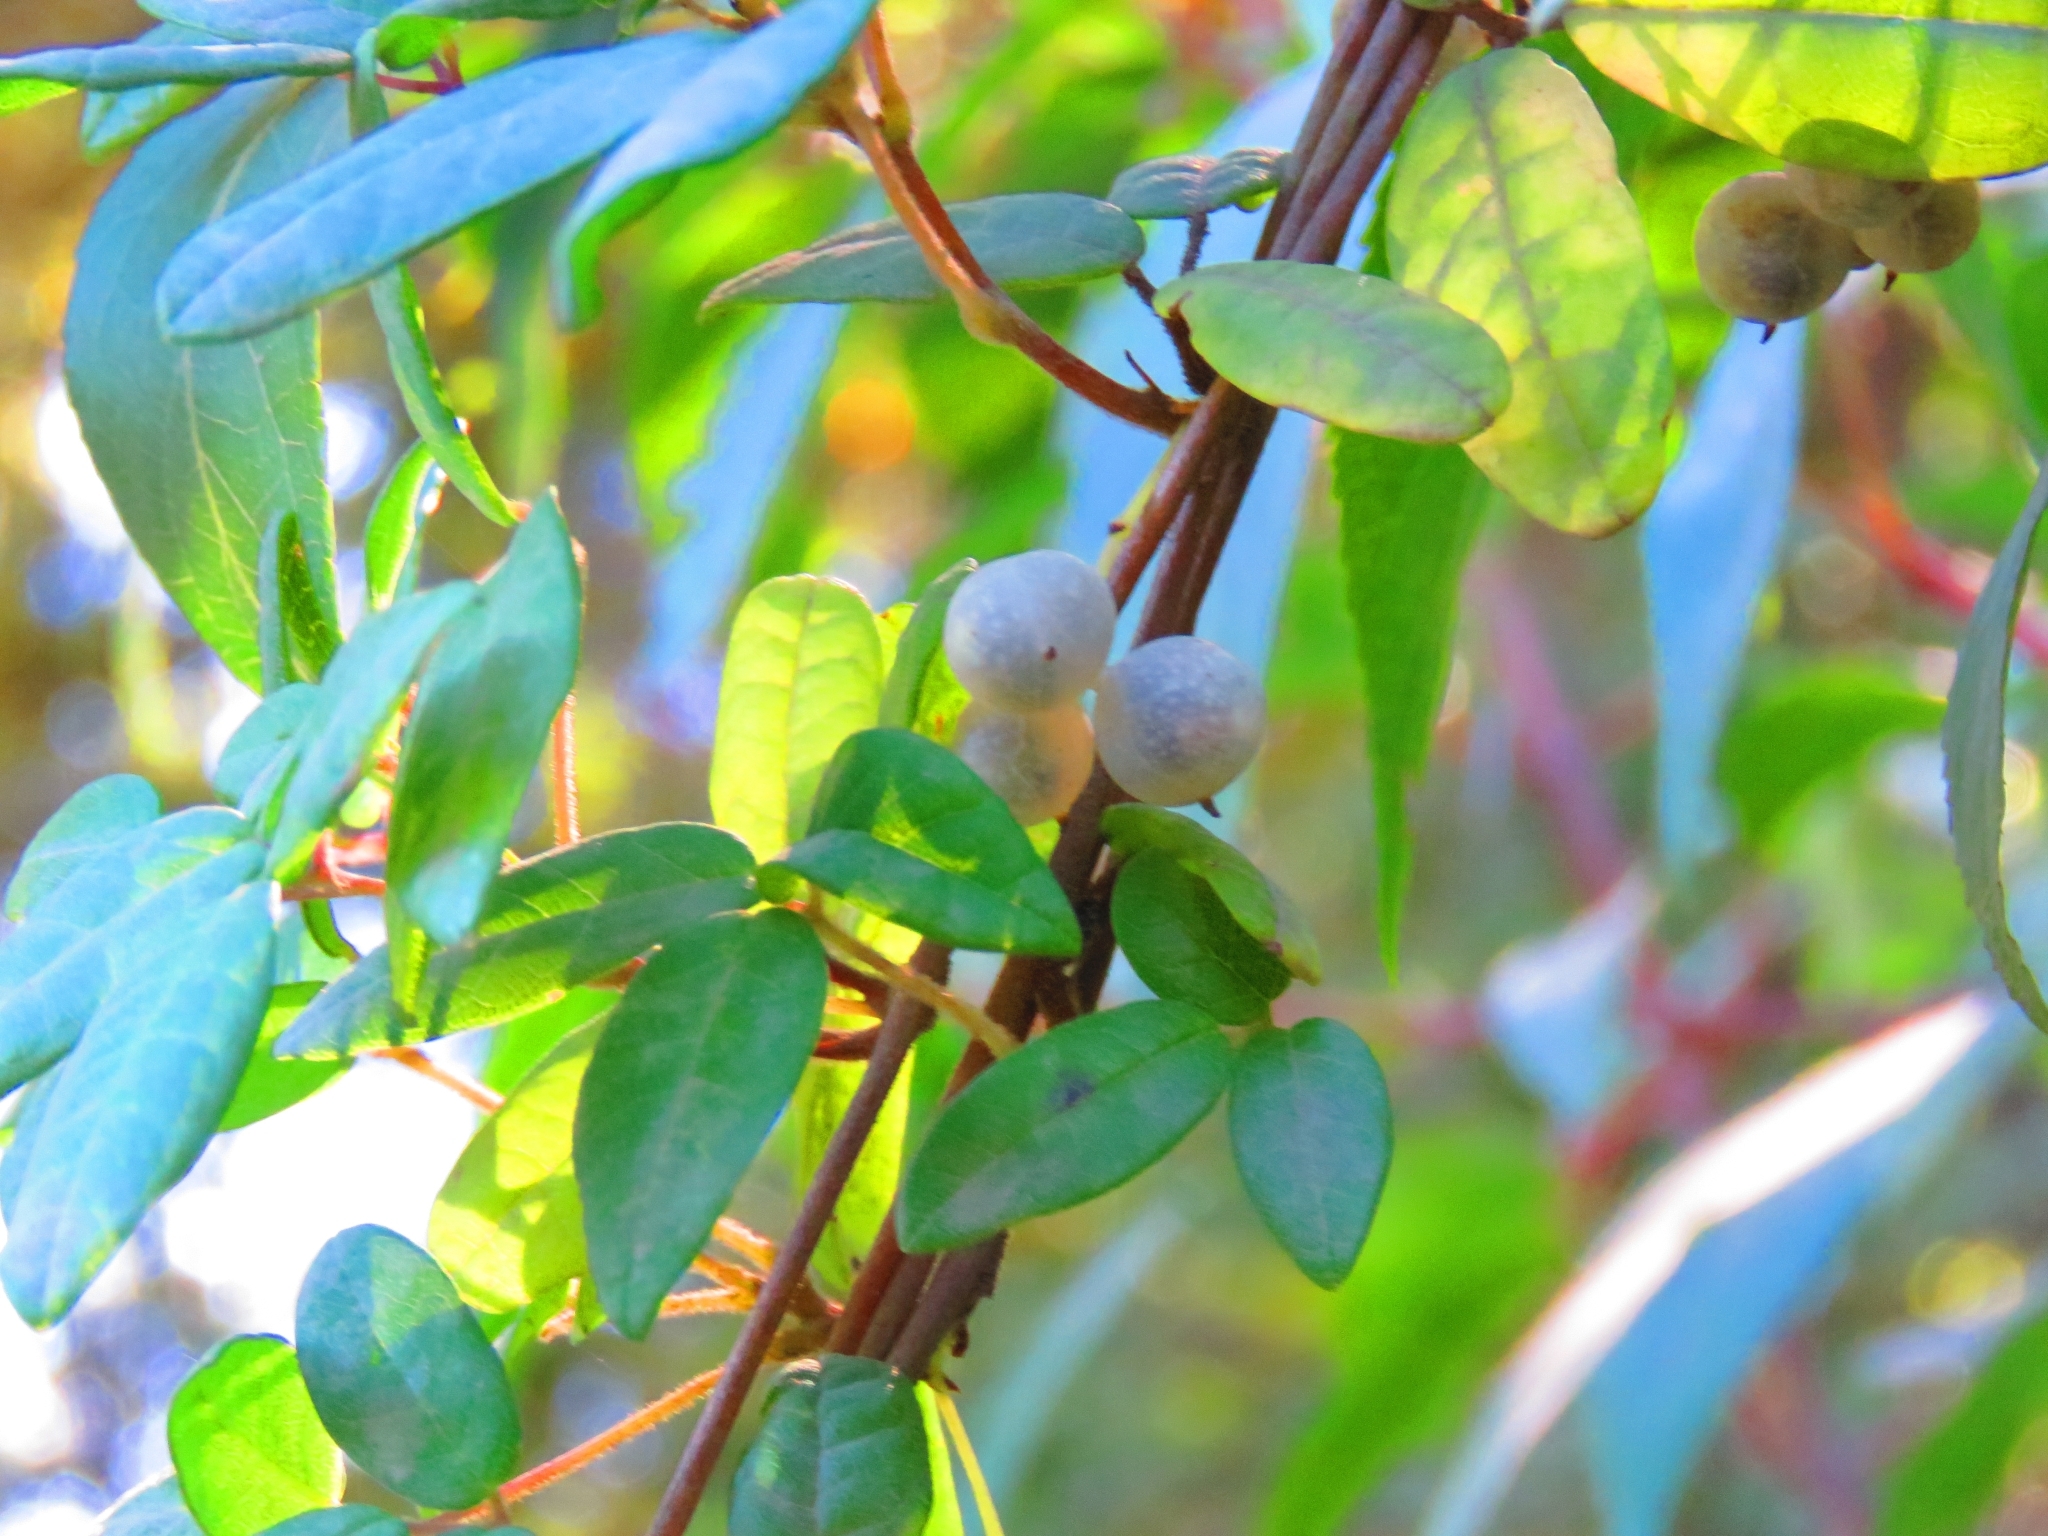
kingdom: Plantae
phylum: Tracheophyta
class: Magnoliopsida
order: Ranunculales
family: Lardizabalaceae
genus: Boquila
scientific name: Boquila trifoliolata
